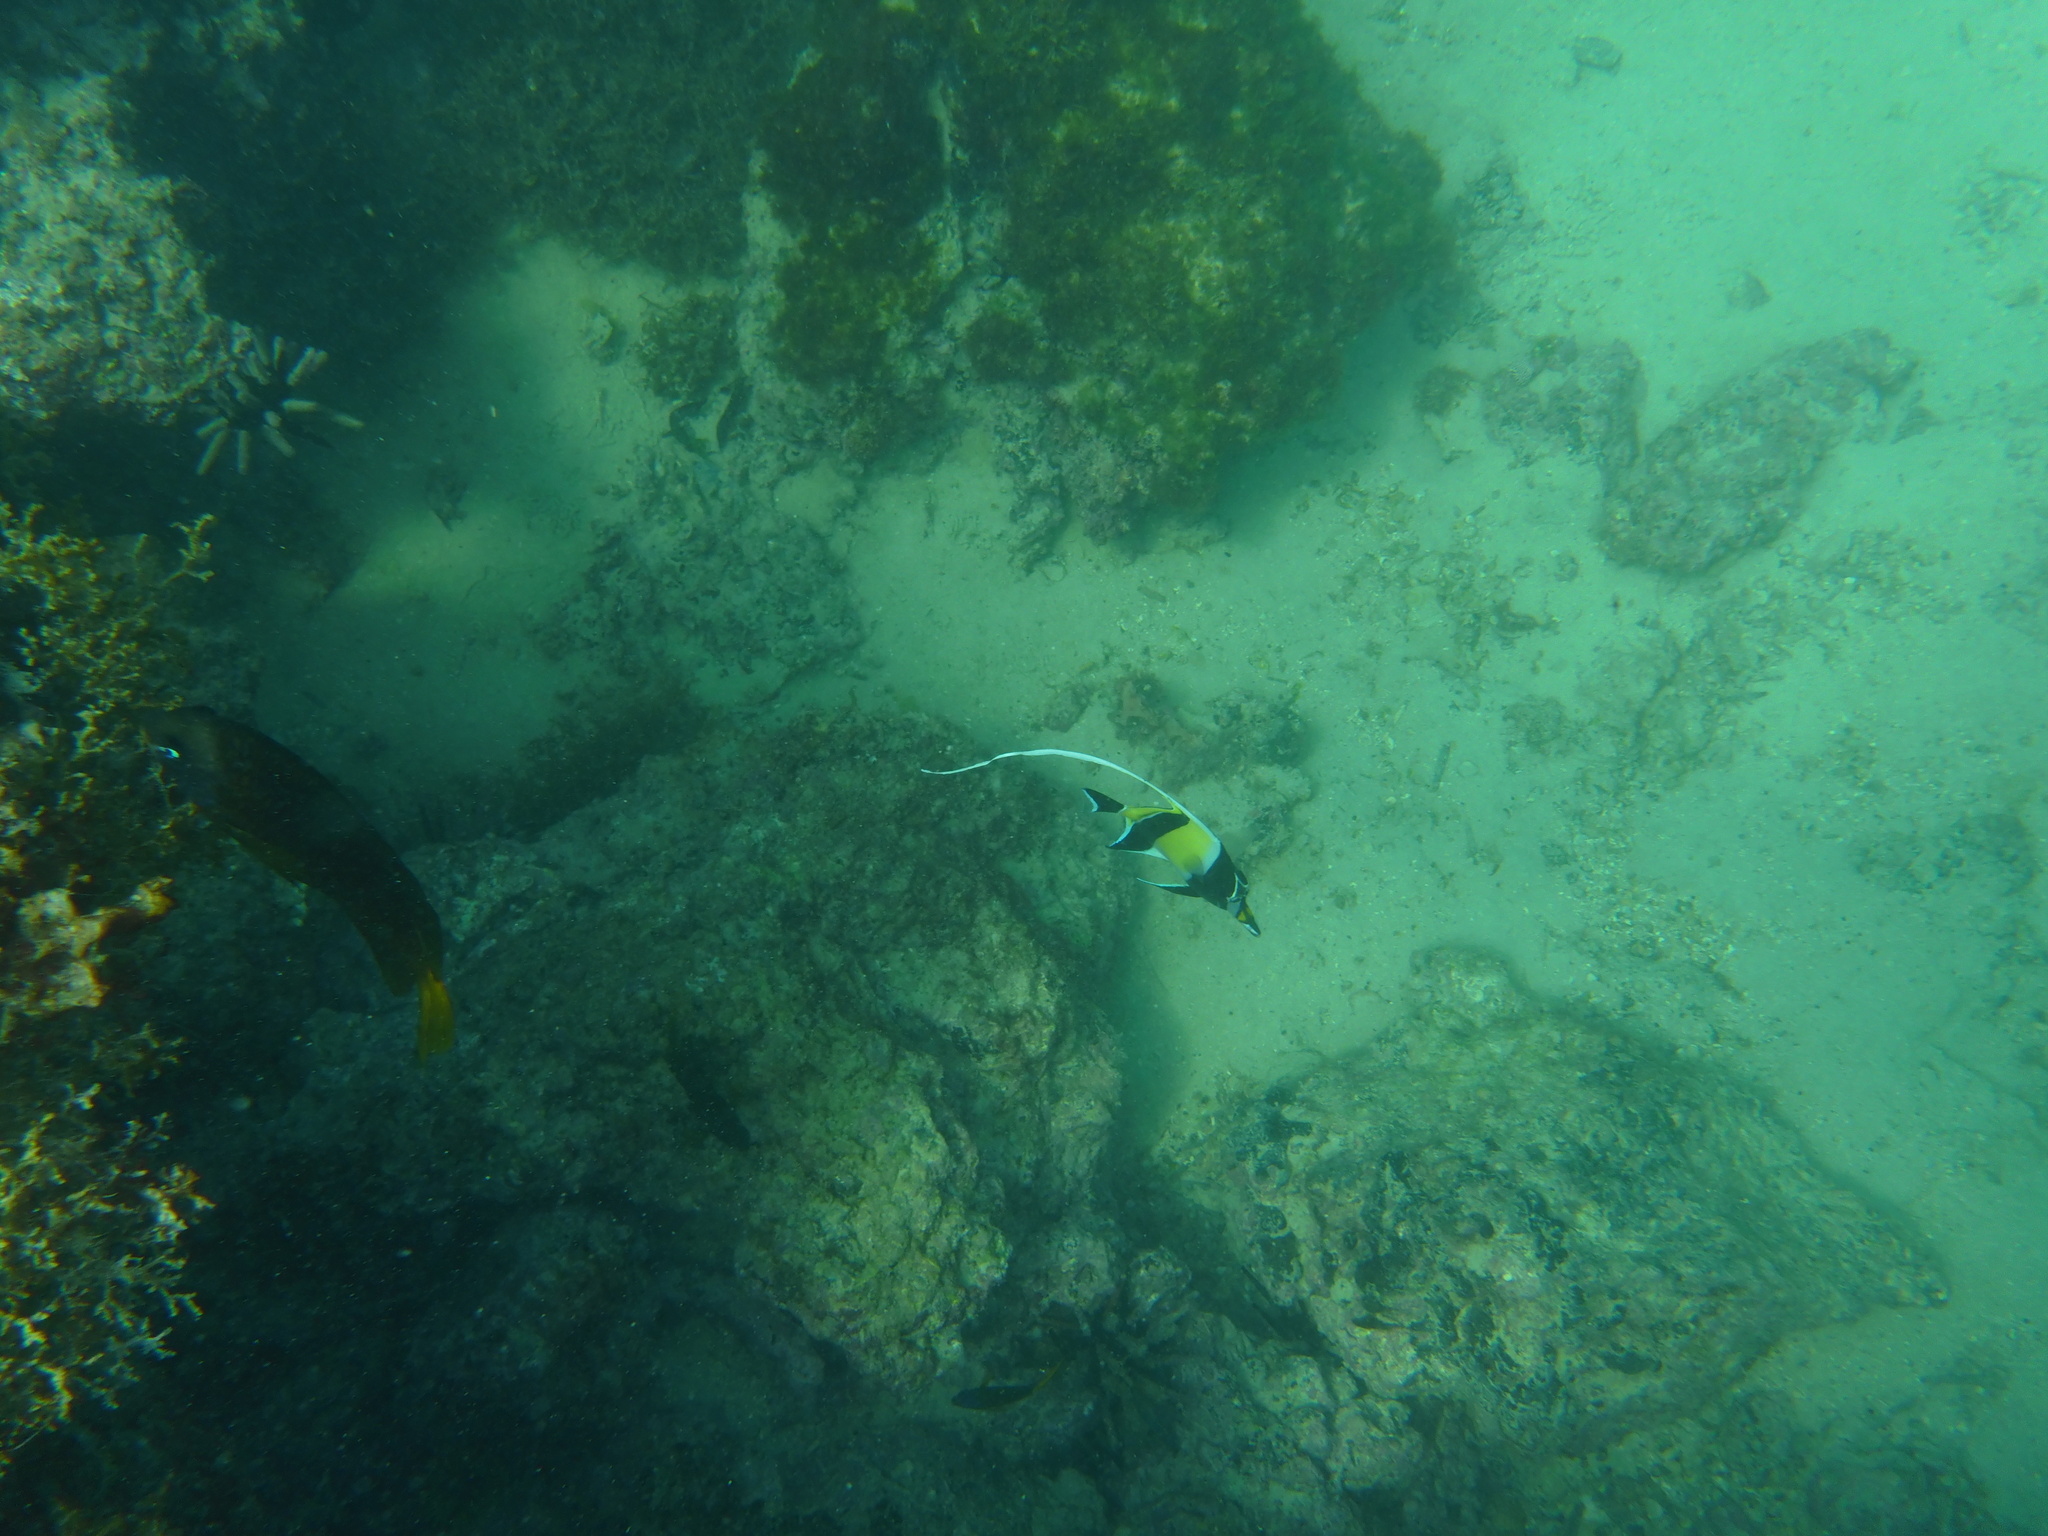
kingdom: Animalia
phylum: Chordata
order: Perciformes
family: Zanclidae
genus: Zanclus
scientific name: Zanclus cornutus
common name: Moorish idol
